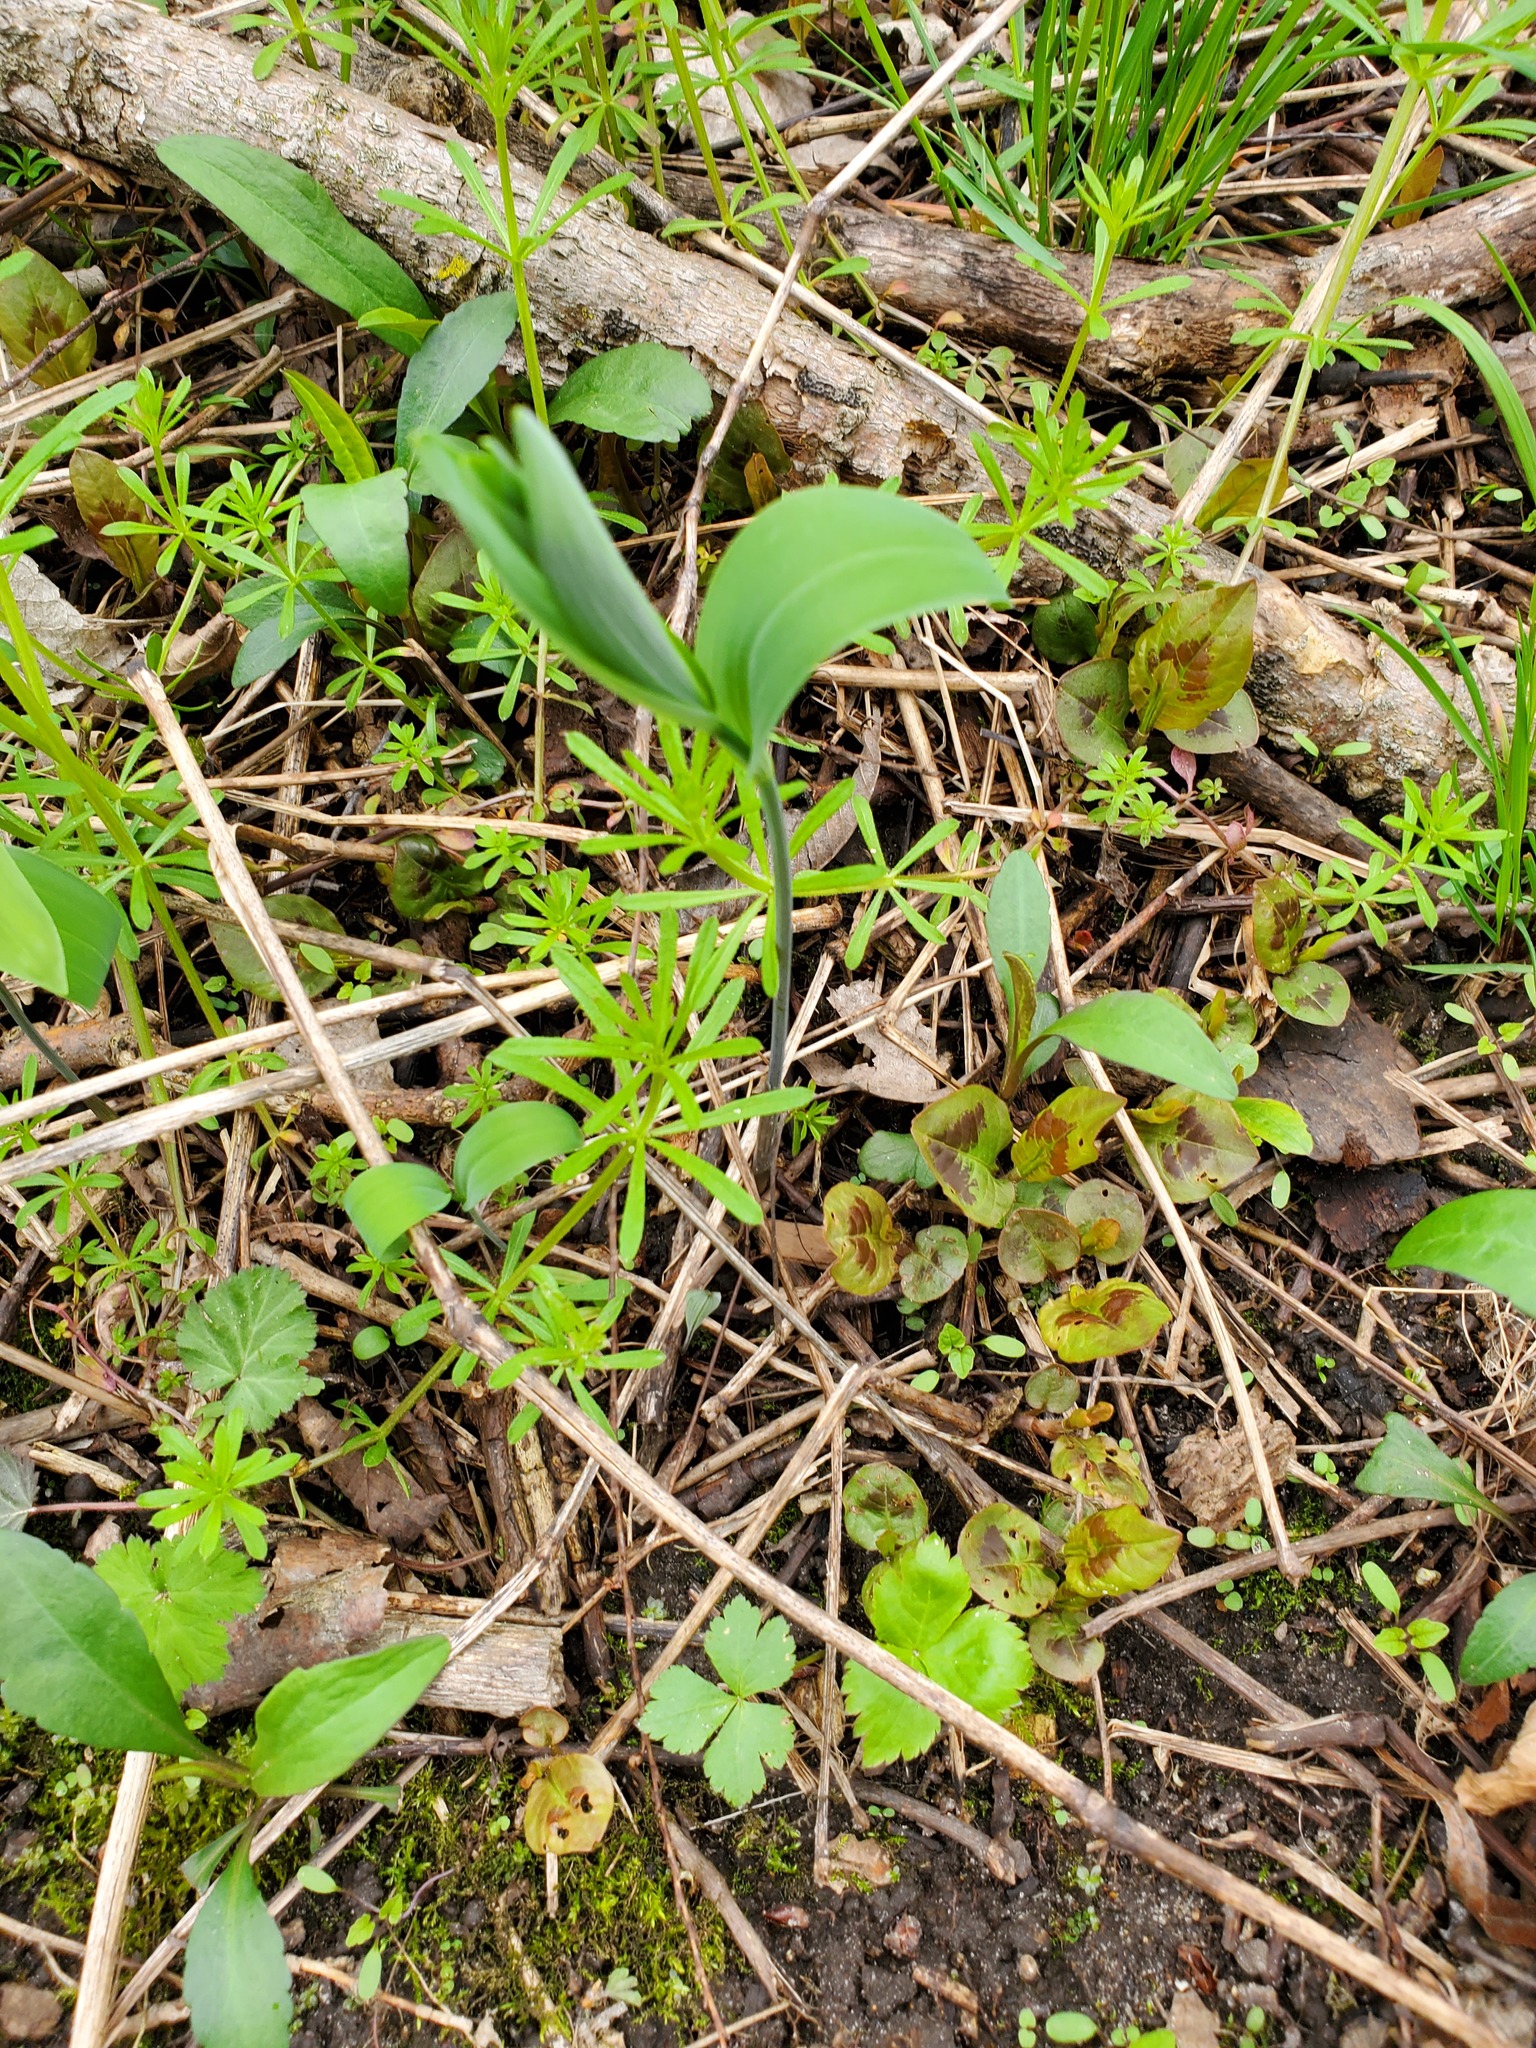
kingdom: Plantae
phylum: Tracheophyta
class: Liliopsida
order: Asparagales
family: Asparagaceae
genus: Polygonatum
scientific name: Polygonatum biflorum
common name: American solomon's-seal
